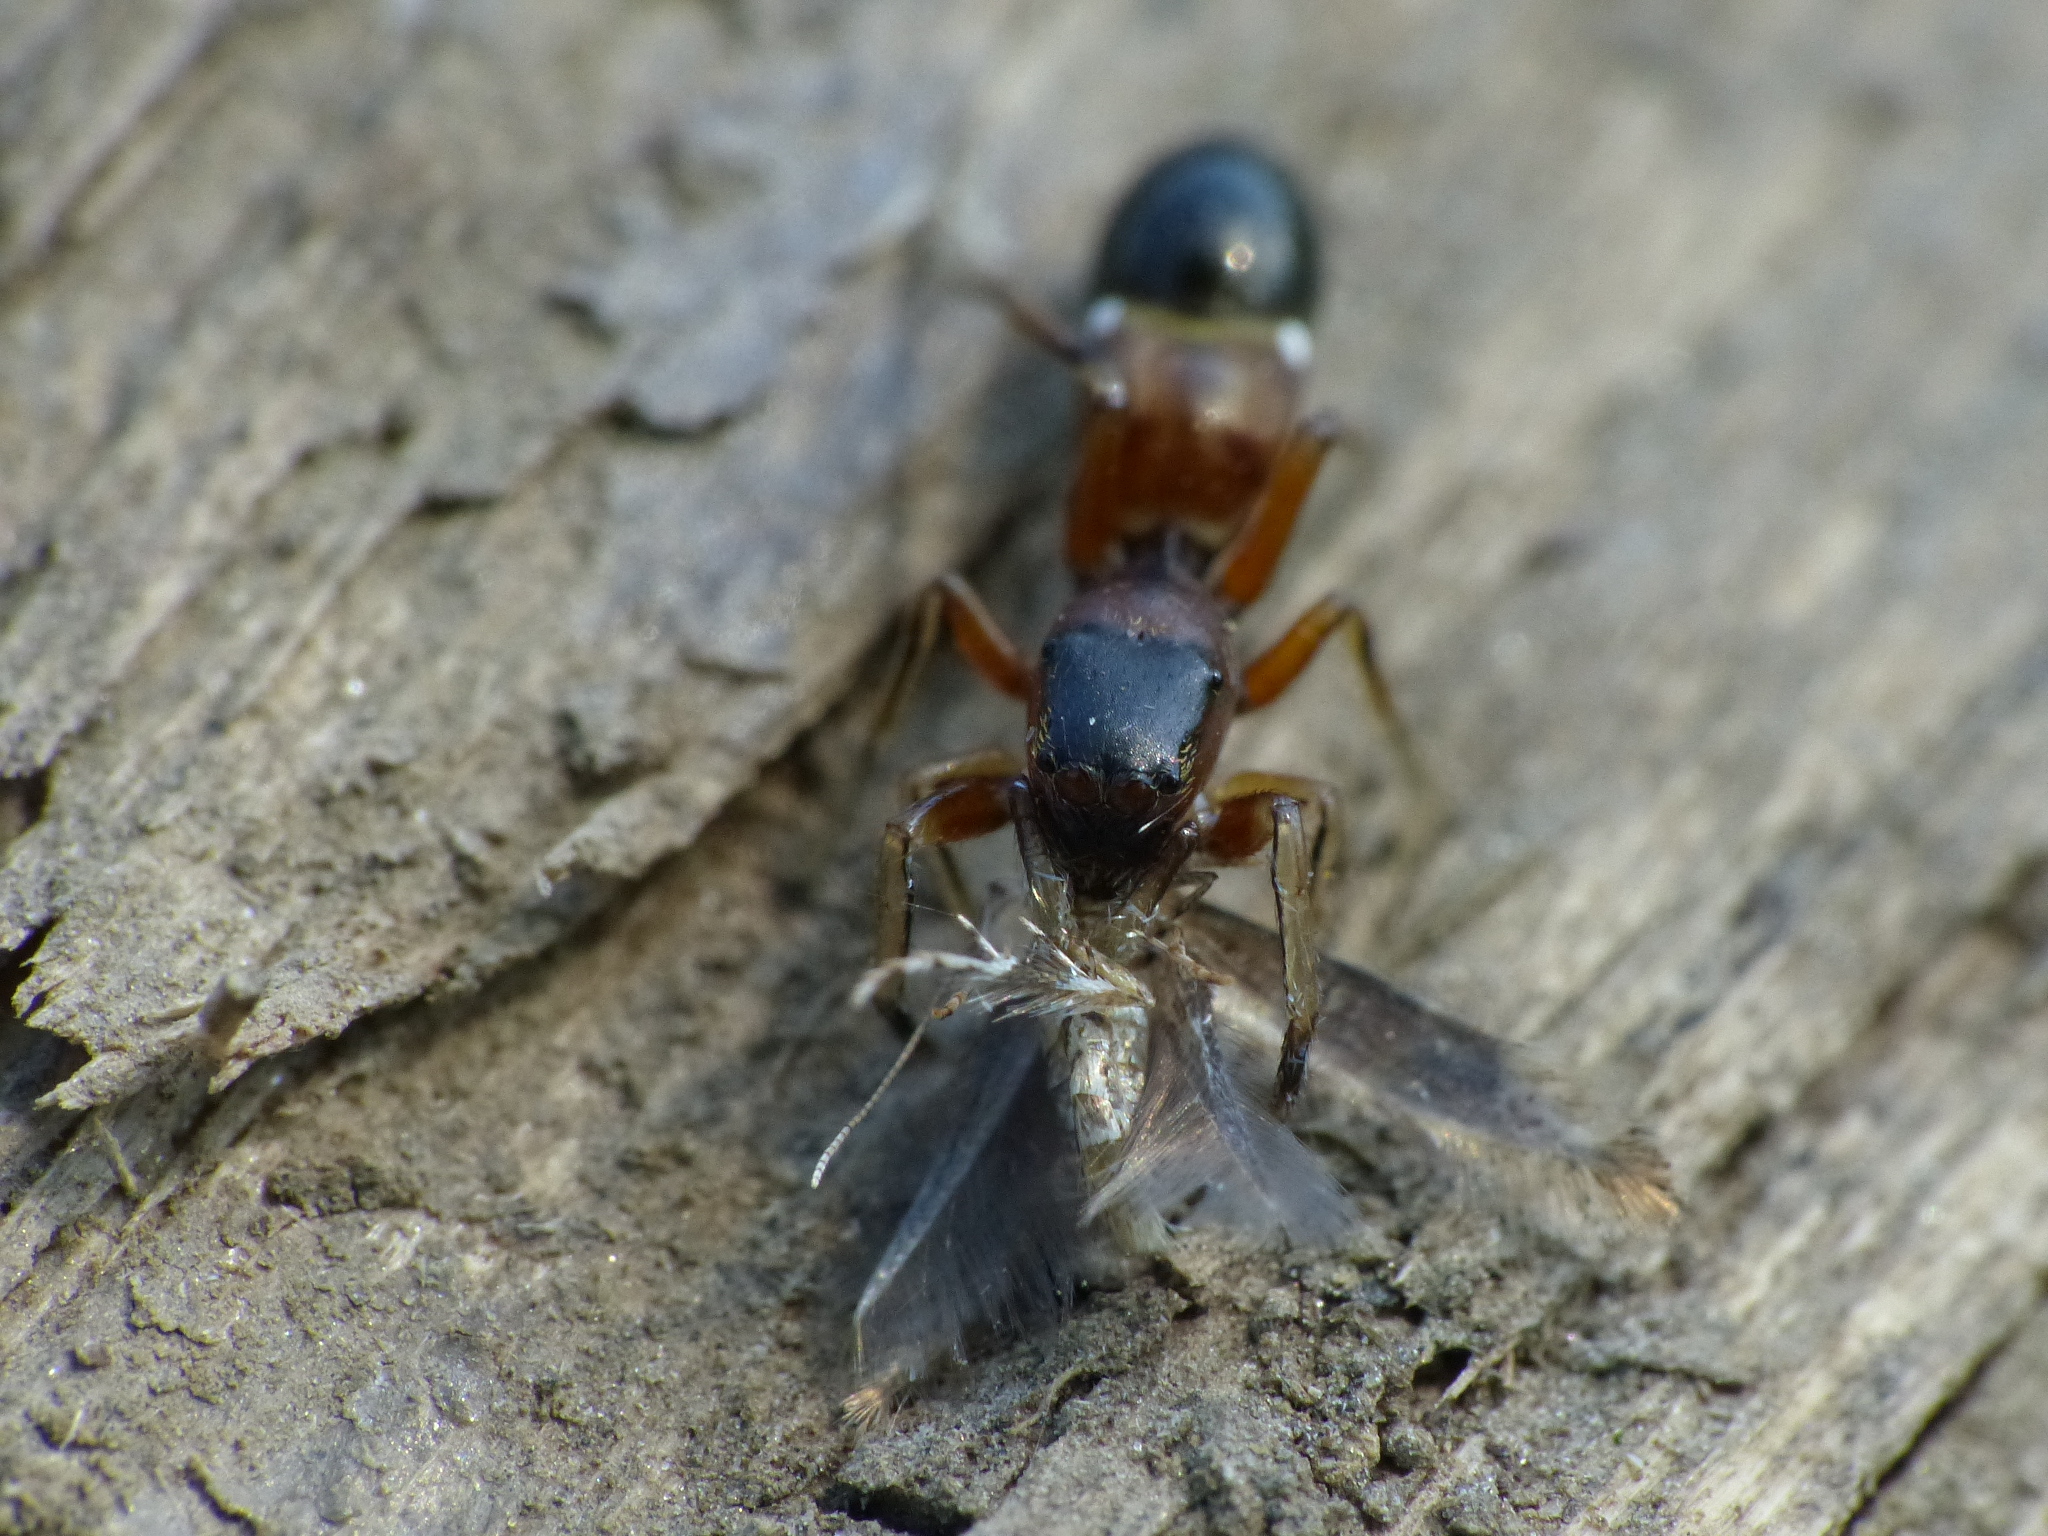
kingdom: Animalia
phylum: Arthropoda
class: Arachnida
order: Araneae
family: Salticidae
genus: Leptorchestes
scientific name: Leptorchestes berolinensis
